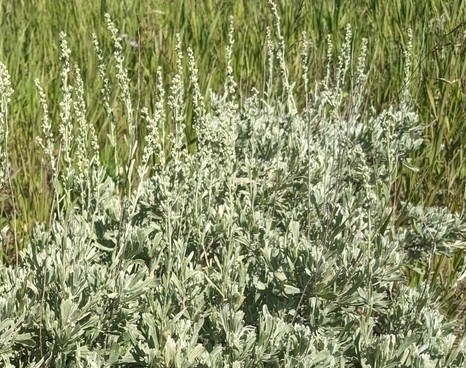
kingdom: Plantae
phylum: Tracheophyta
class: Magnoliopsida
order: Asterales
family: Asteraceae
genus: Artemisia
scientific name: Artemisia tridentata
